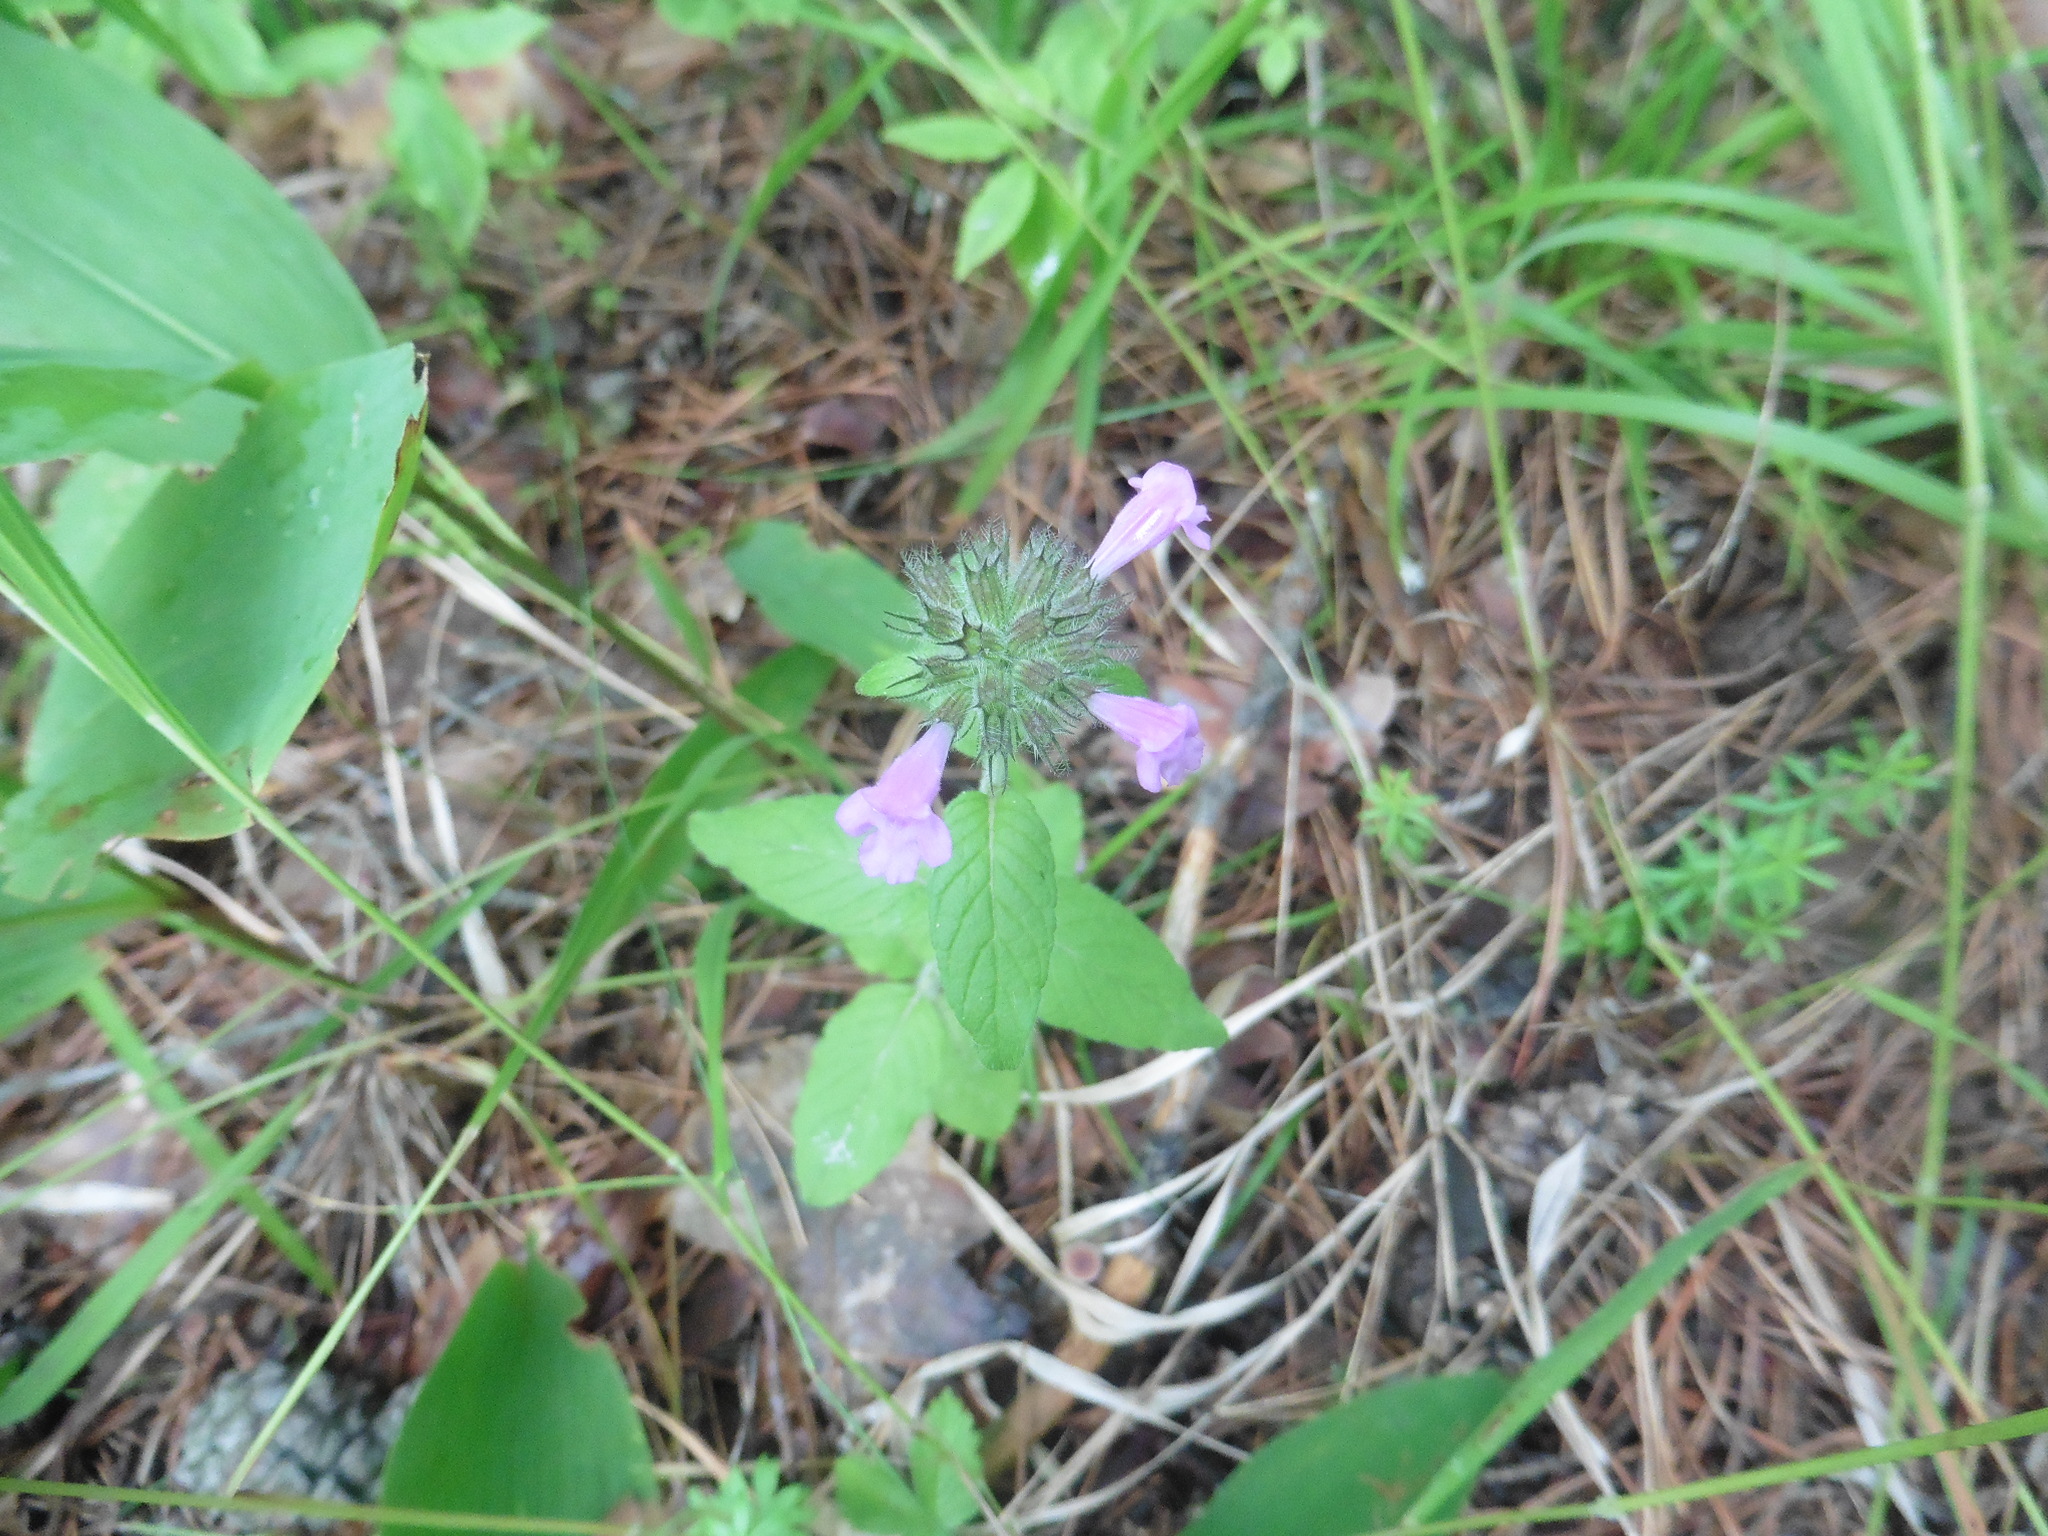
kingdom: Plantae
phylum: Tracheophyta
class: Magnoliopsida
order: Lamiales
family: Lamiaceae
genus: Clinopodium
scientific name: Clinopodium vulgare
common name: Wild basil
